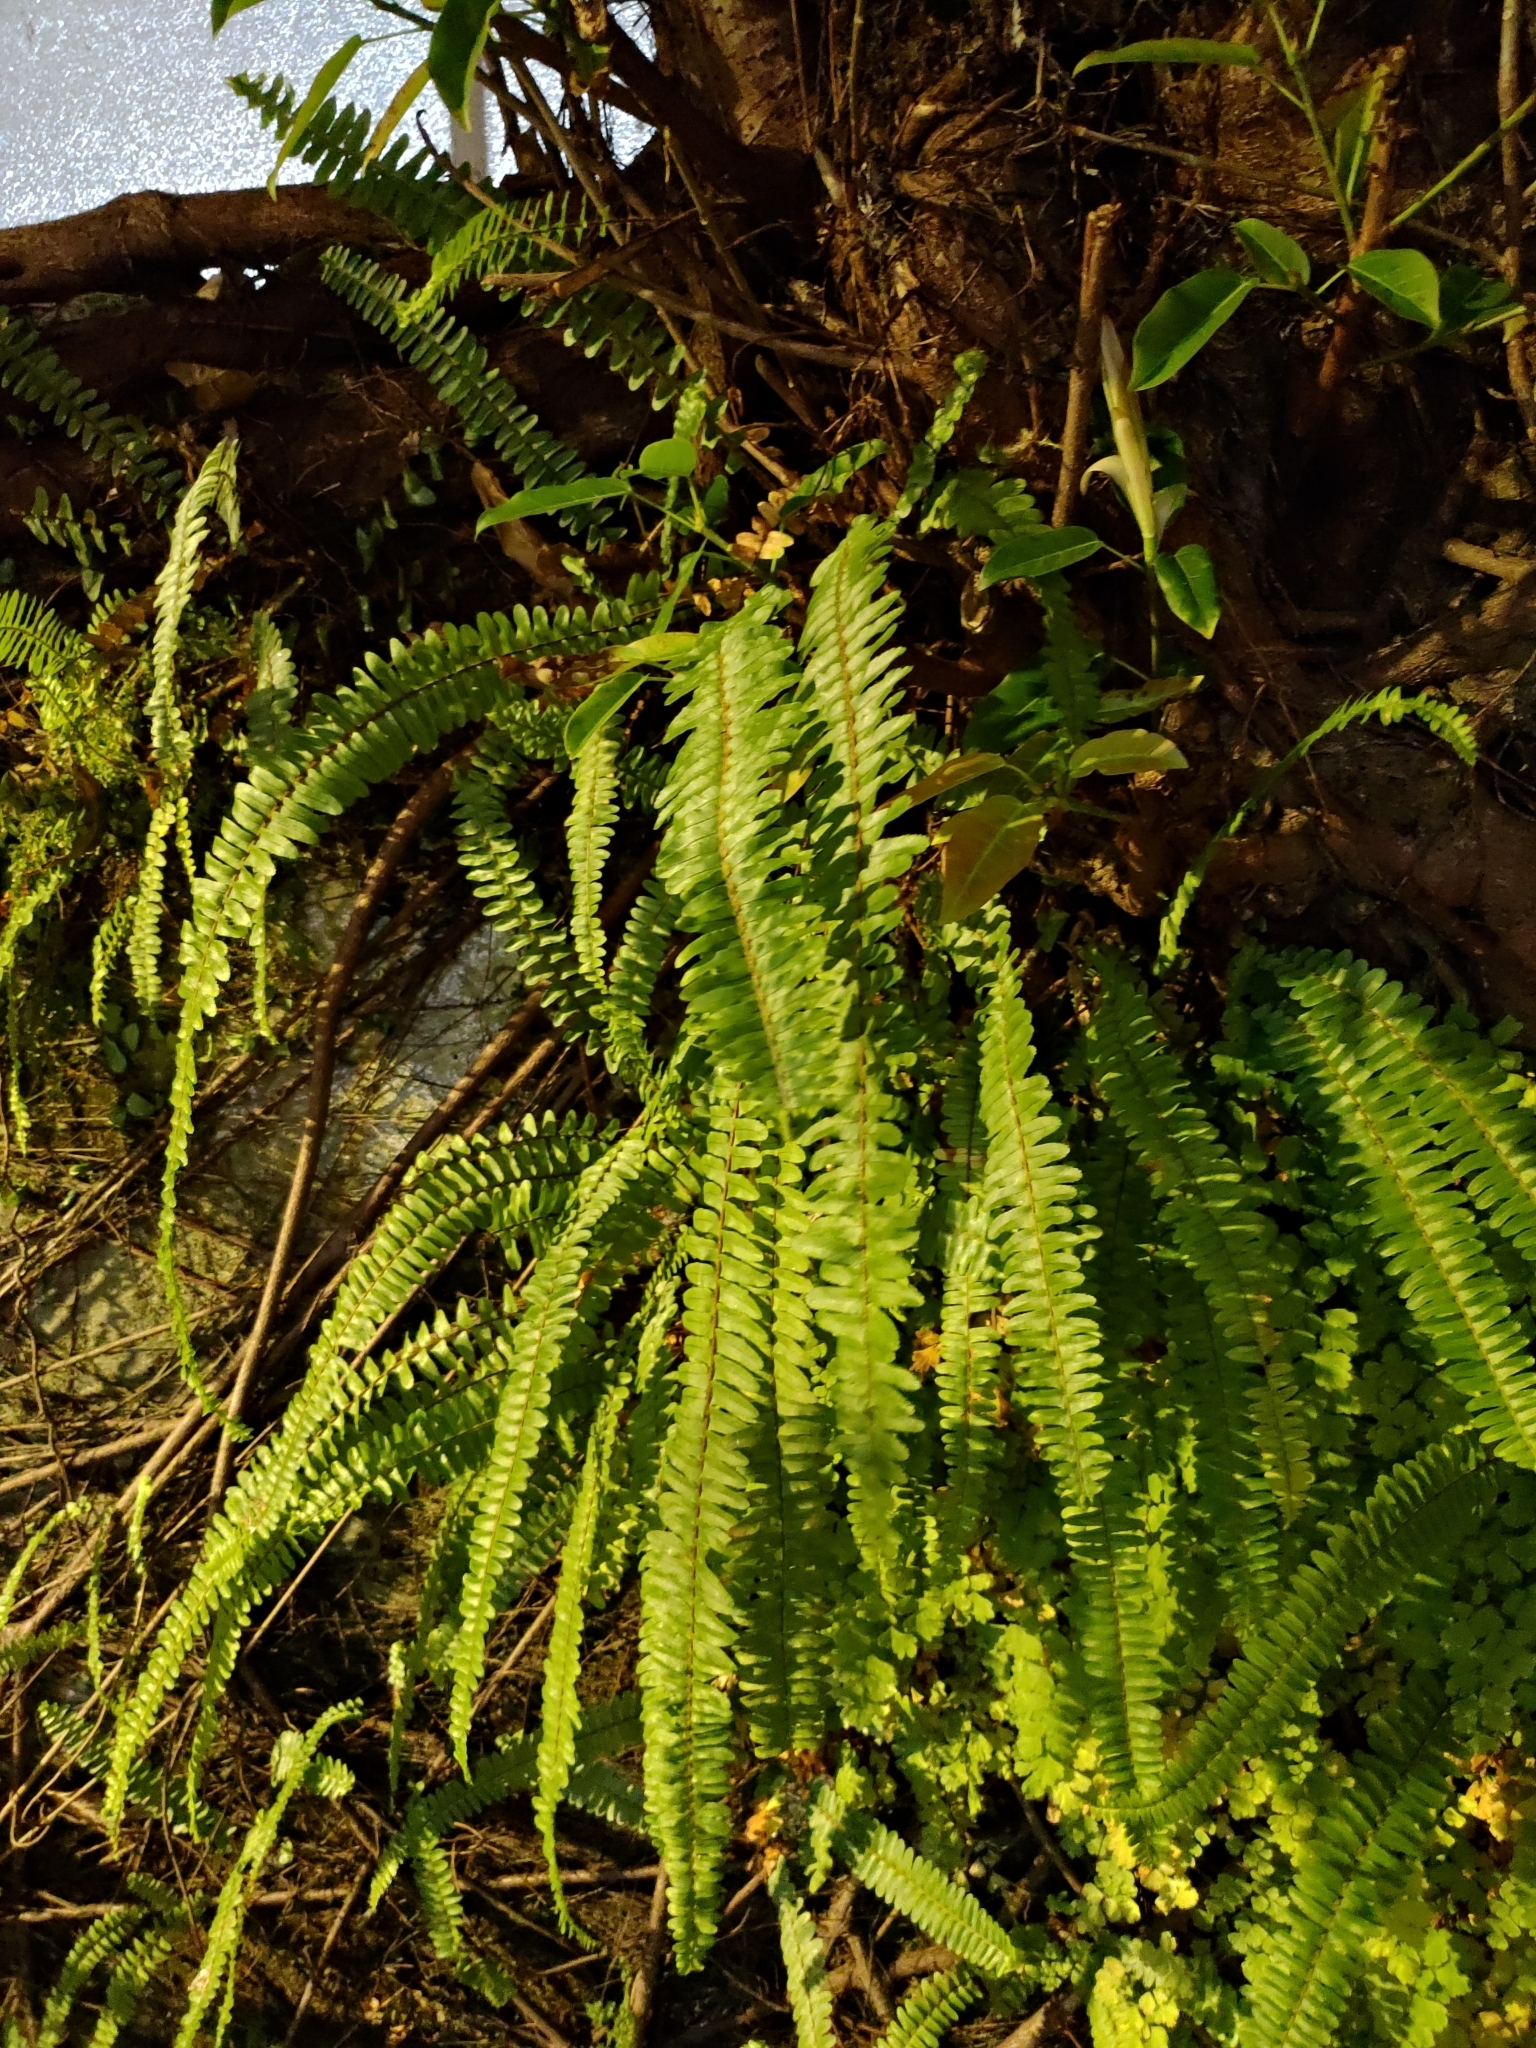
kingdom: Plantae
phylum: Tracheophyta
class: Polypodiopsida
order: Polypodiales
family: Nephrolepidaceae
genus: Nephrolepis
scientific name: Nephrolepis cordifolia
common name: Narrow swordfern
